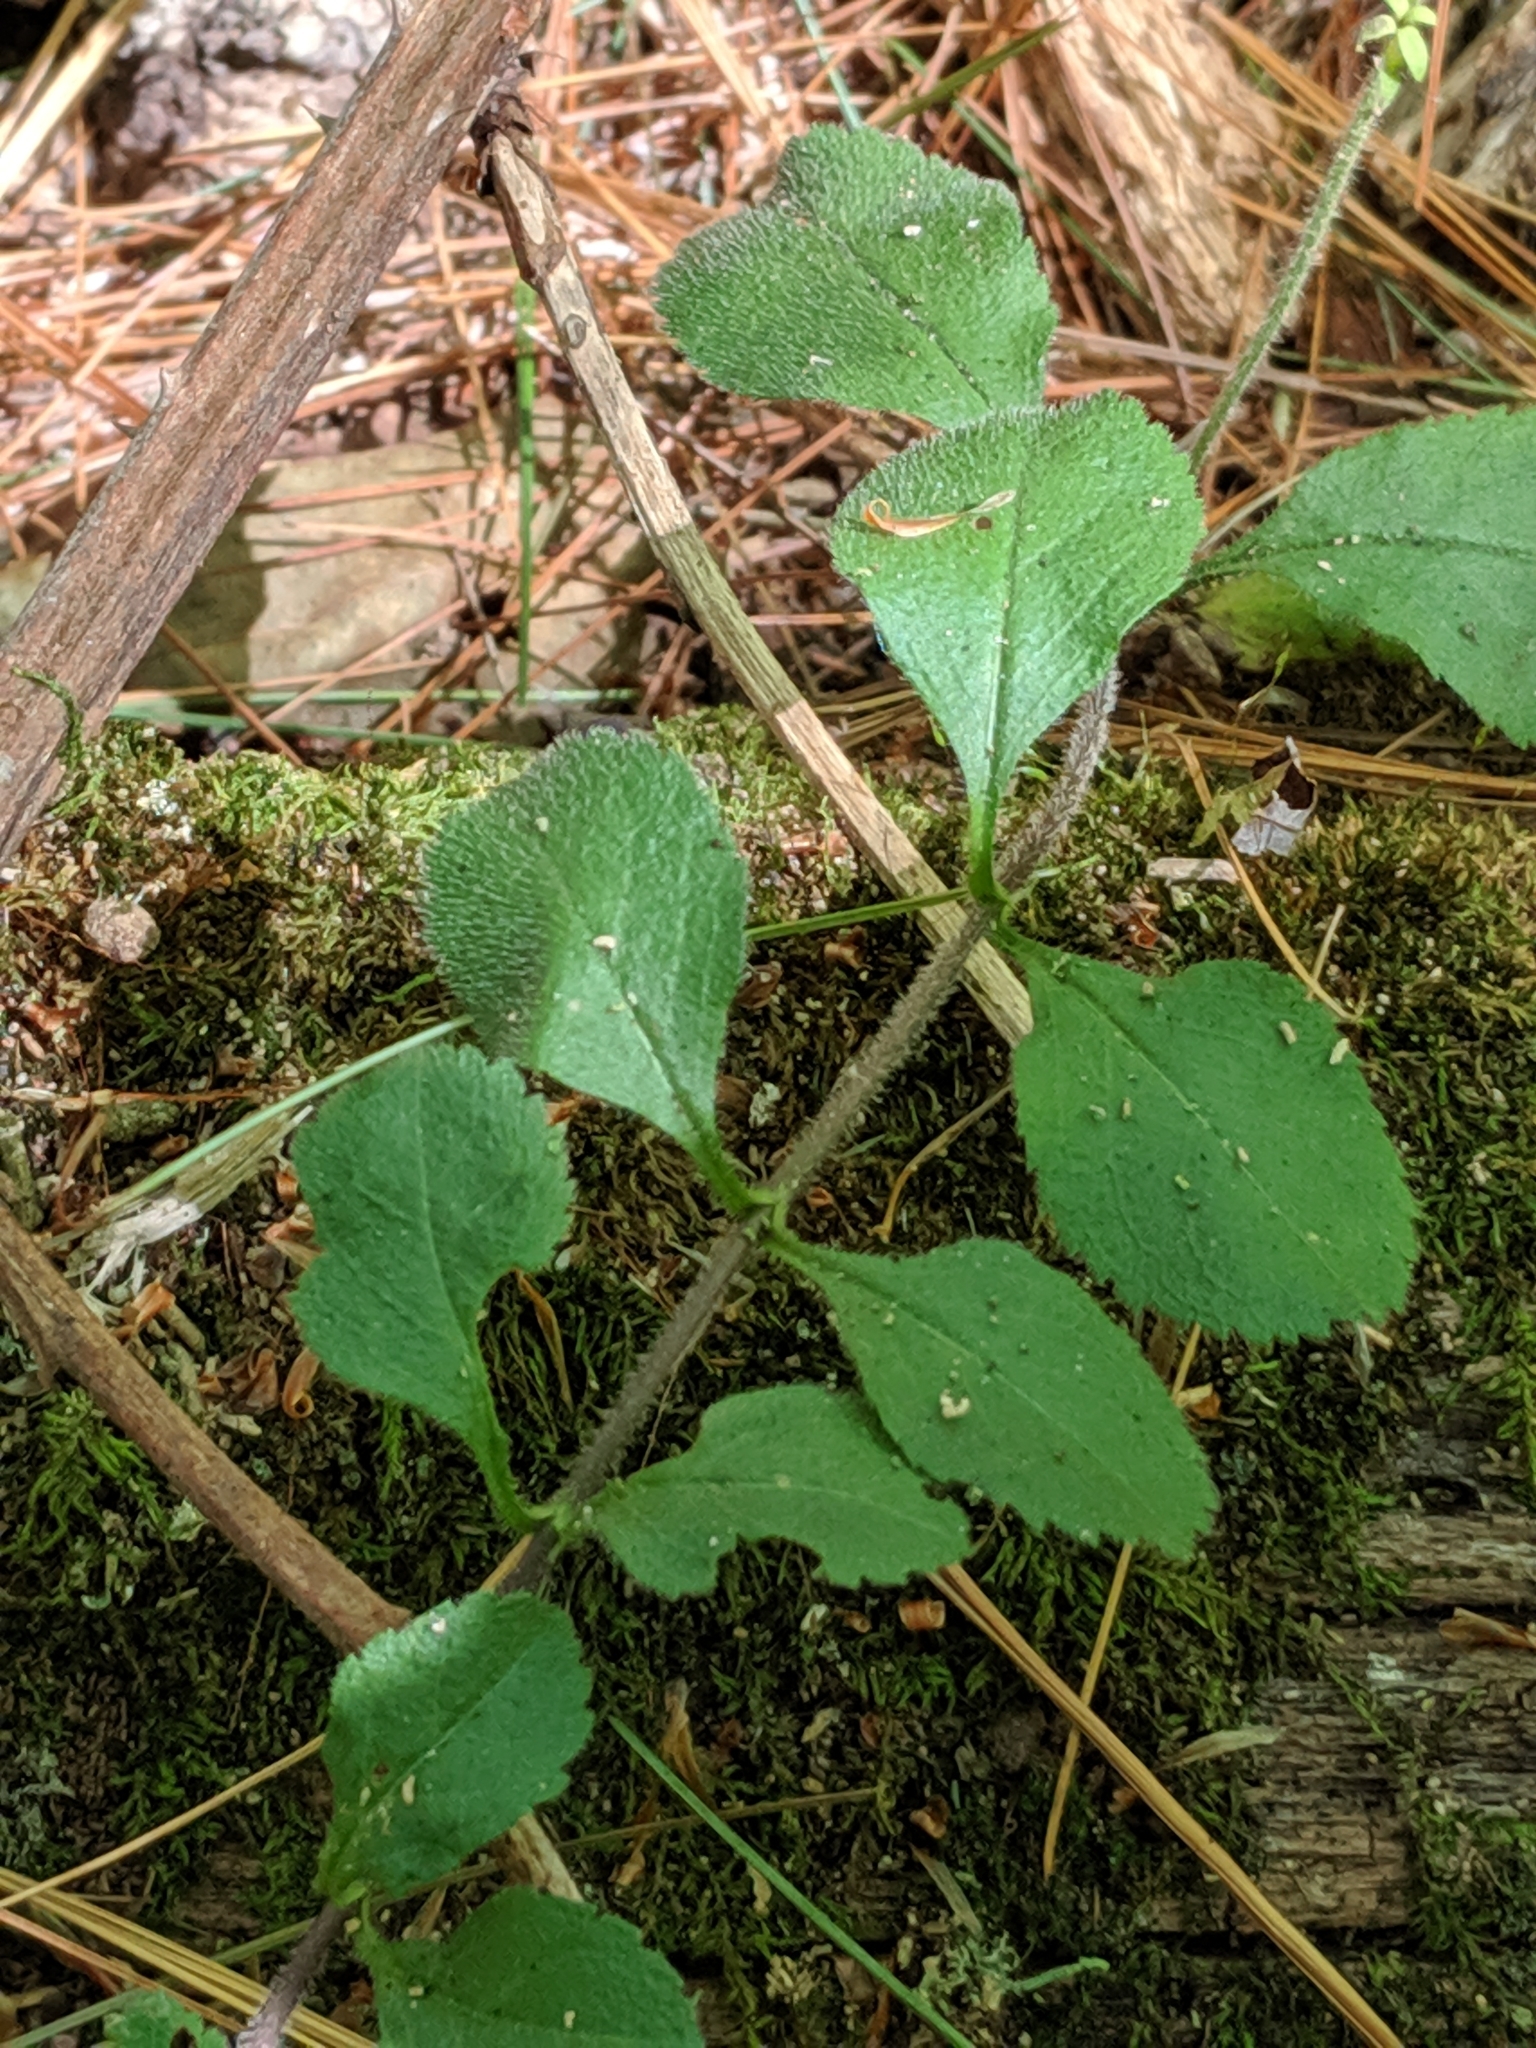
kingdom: Plantae
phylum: Tracheophyta
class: Magnoliopsida
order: Lamiales
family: Plantaginaceae
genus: Veronica
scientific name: Veronica officinalis
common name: Common speedwell
